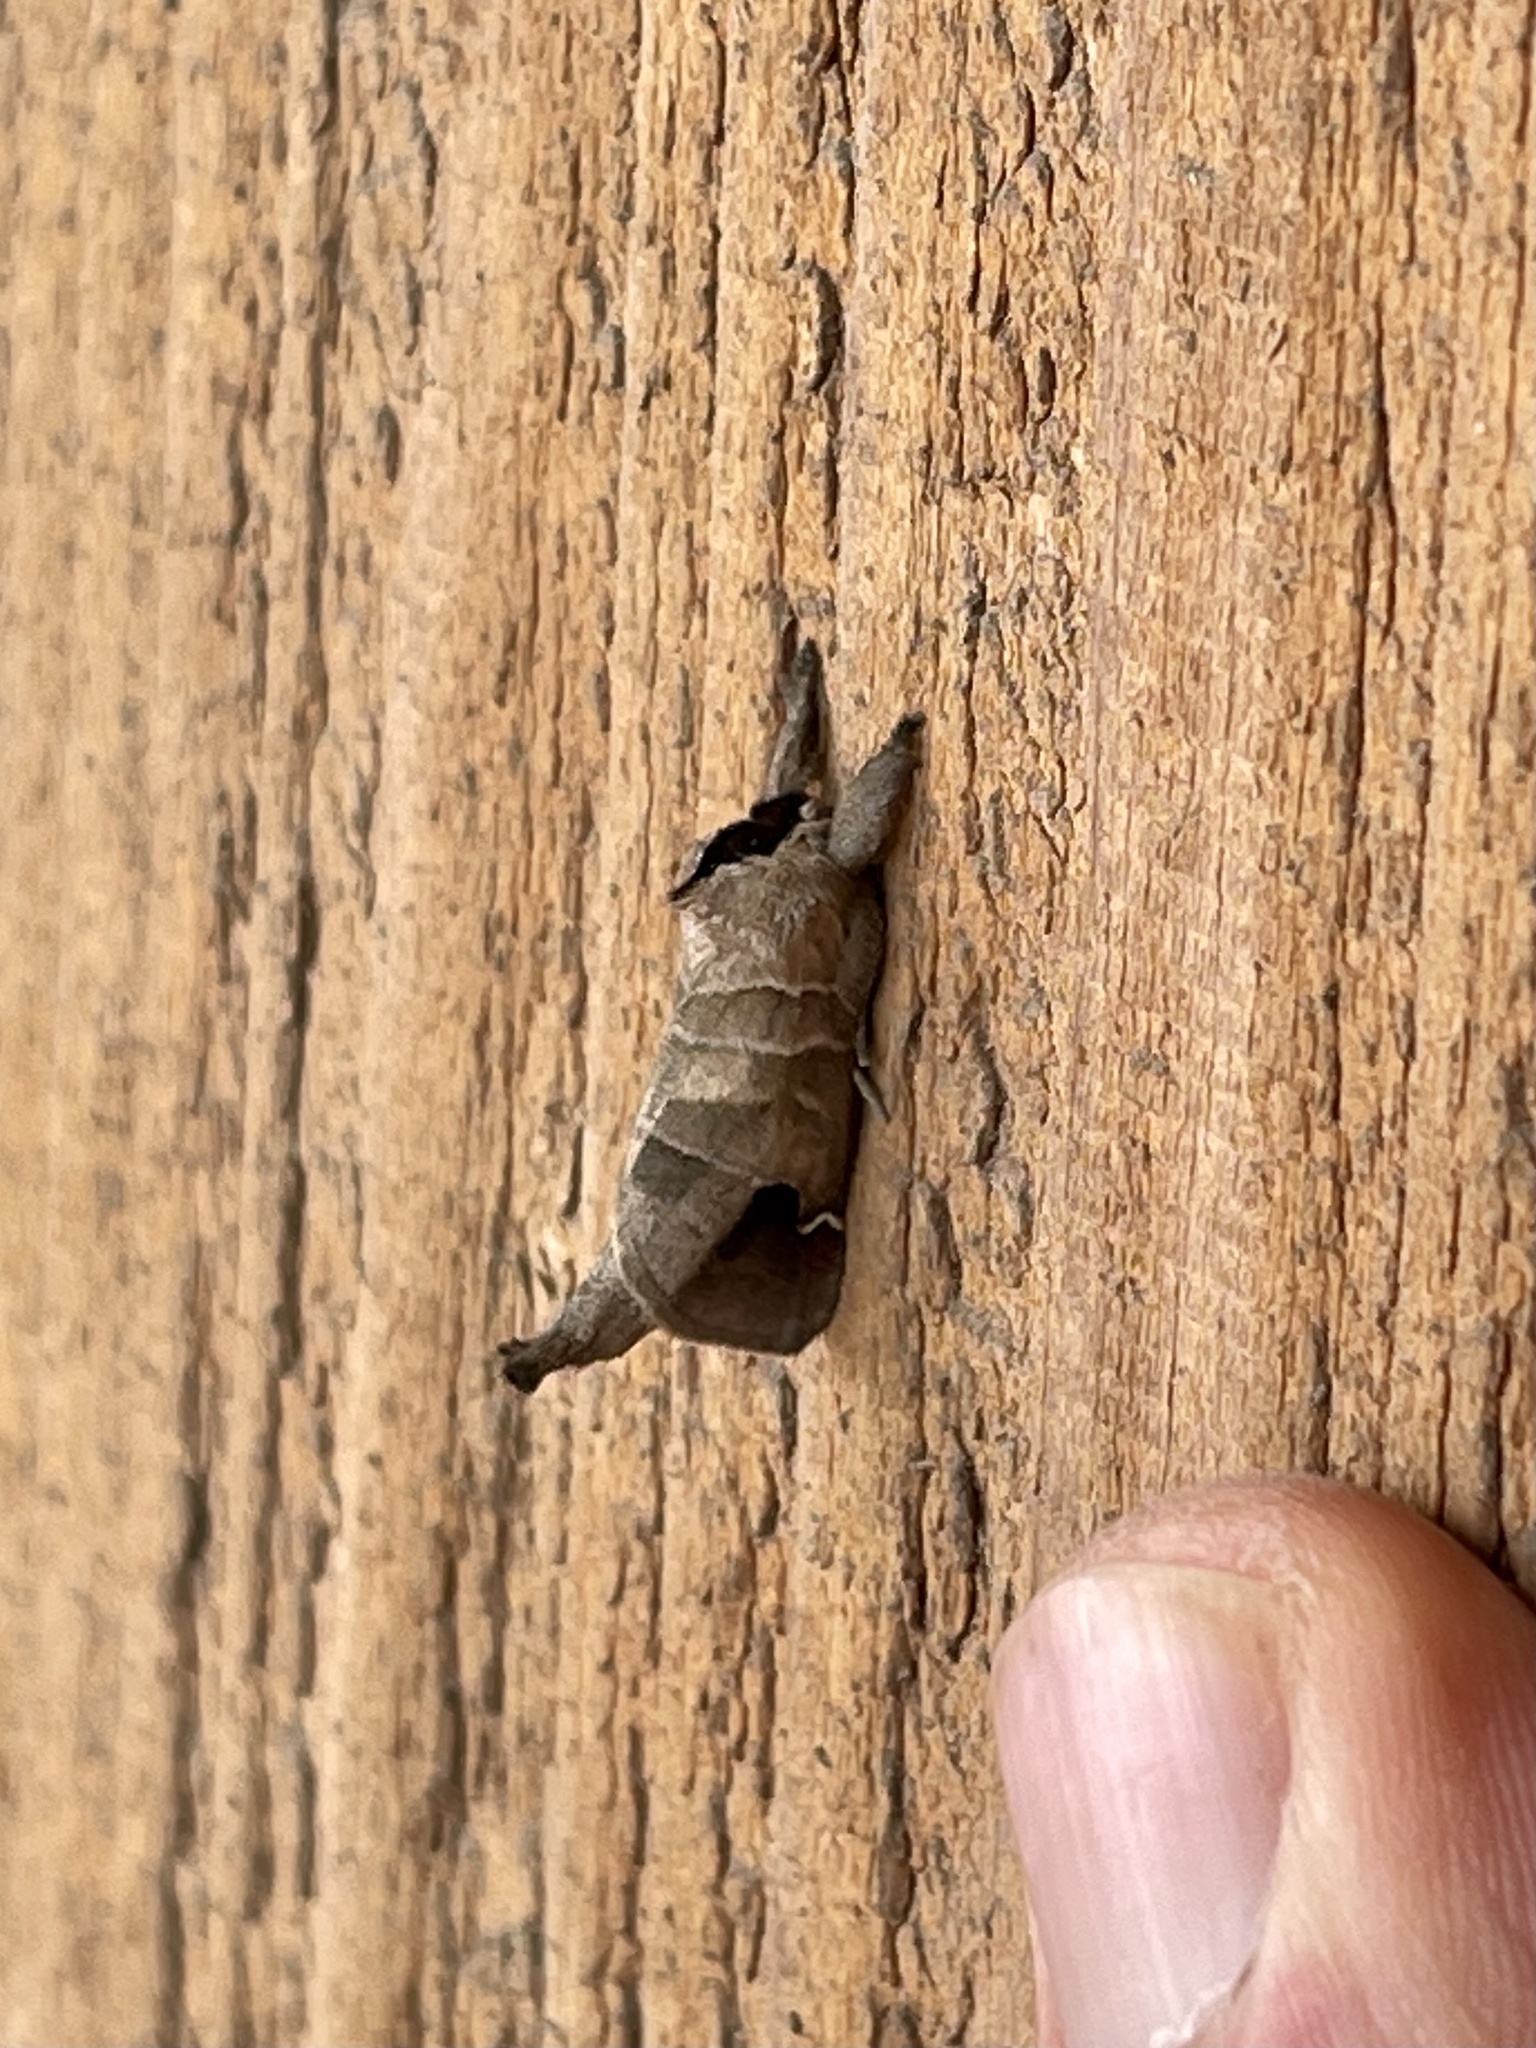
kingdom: Animalia
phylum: Arthropoda
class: Insecta
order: Lepidoptera
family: Notodontidae
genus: Clostera
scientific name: Clostera albosigma
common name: Sigmoid prominent
